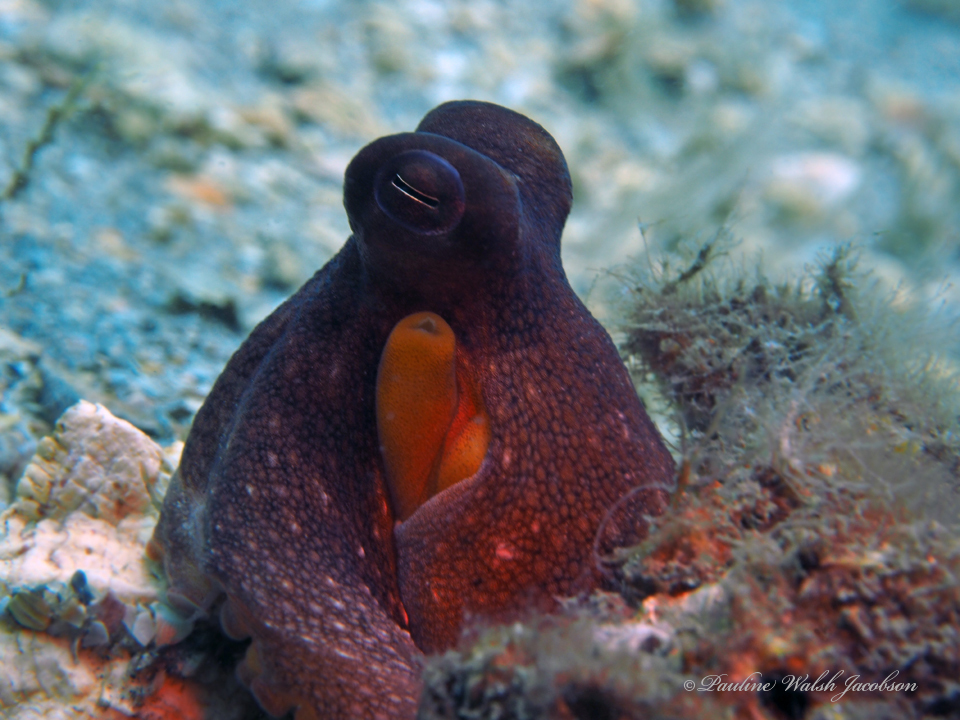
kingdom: Animalia
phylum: Mollusca
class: Cephalopoda
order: Octopoda
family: Octopodidae
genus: Octopus
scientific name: Octopus americanus
